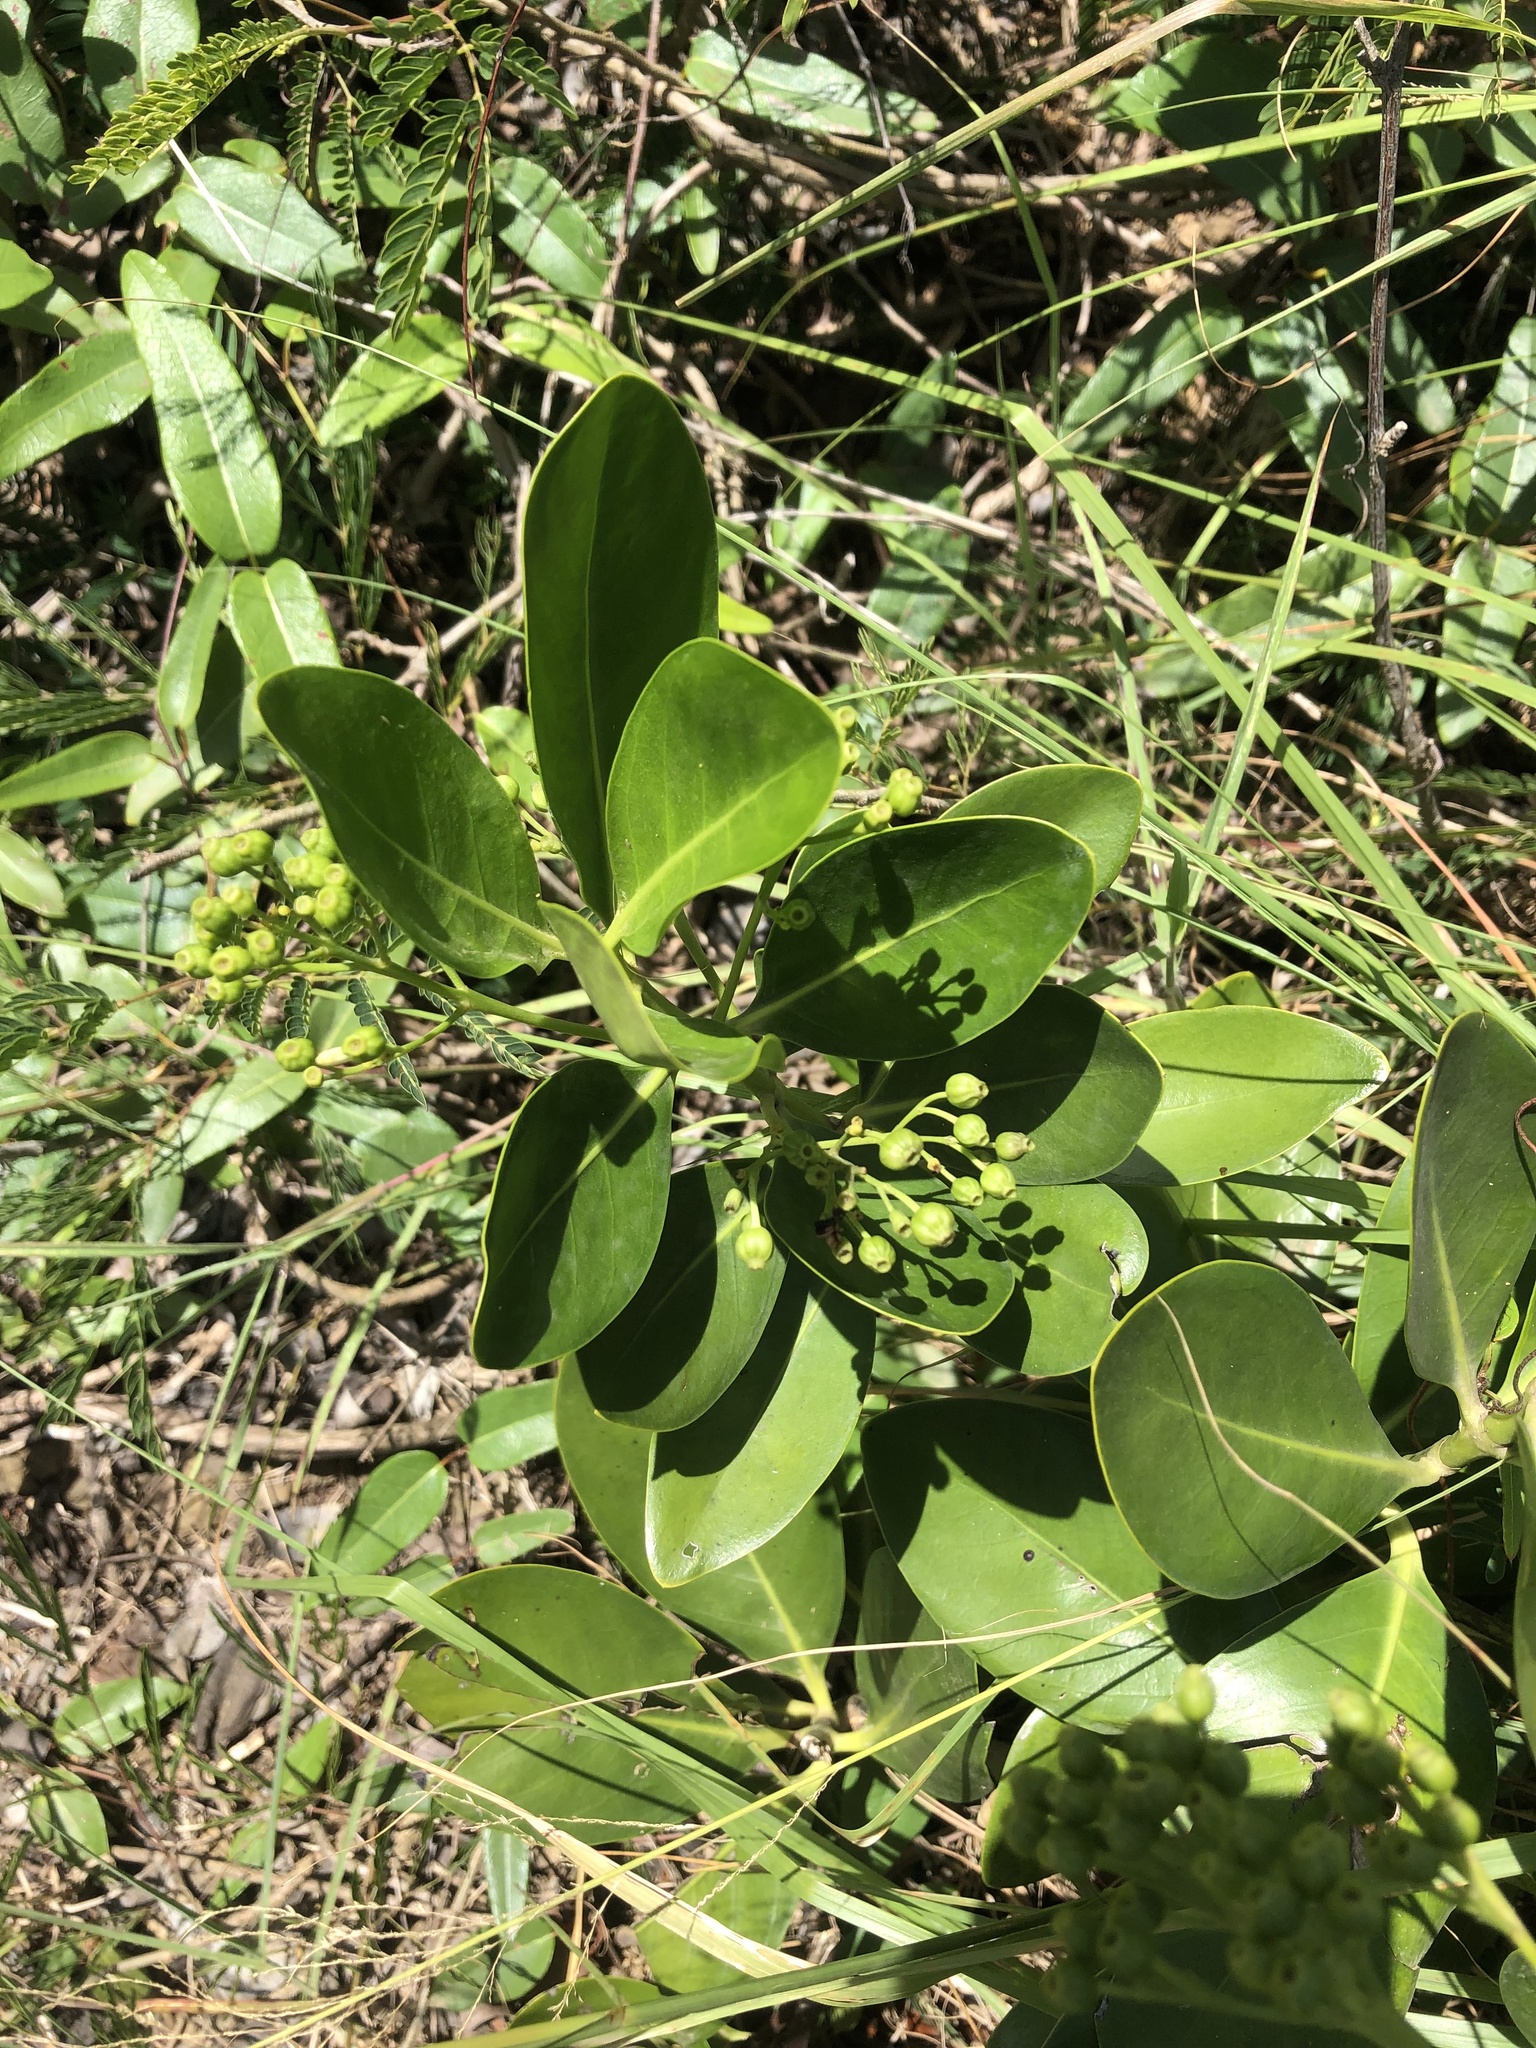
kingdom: Plantae
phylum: Tracheophyta
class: Magnoliopsida
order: Gentianales
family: Rubiaceae
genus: Erithalis
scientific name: Erithalis fruticosa
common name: Candlewood
